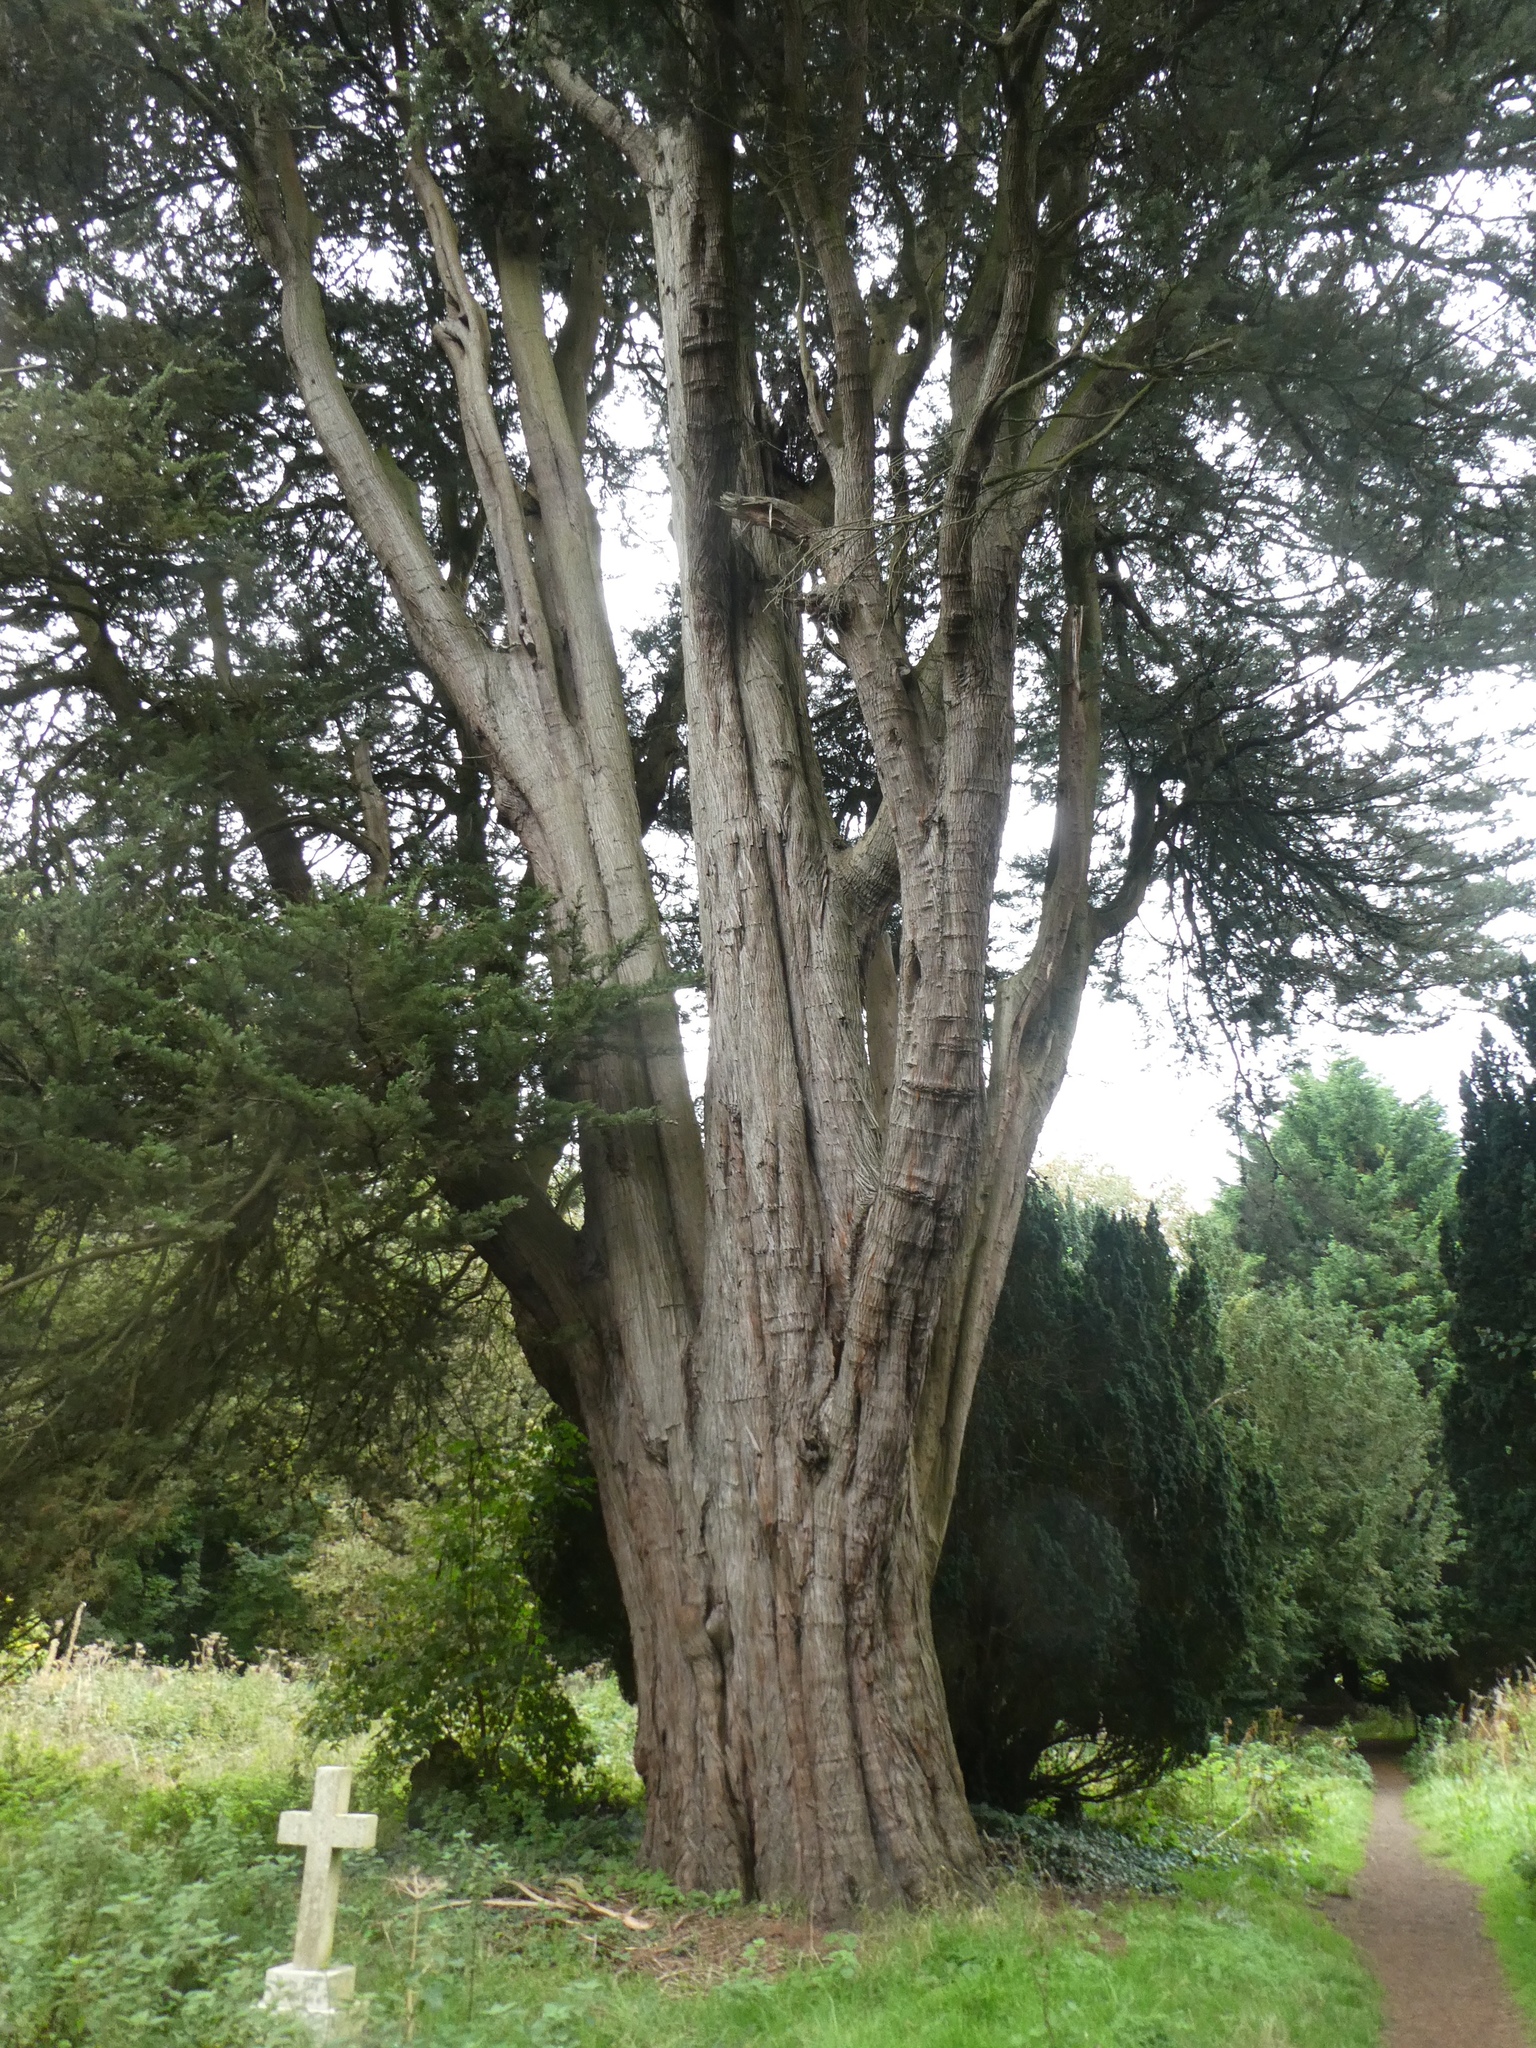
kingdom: Plantae
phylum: Tracheophyta
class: Pinopsida
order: Pinales
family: Cupressaceae
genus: Cupressus
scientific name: Cupressus macrocarpa
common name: Monterey cypress
